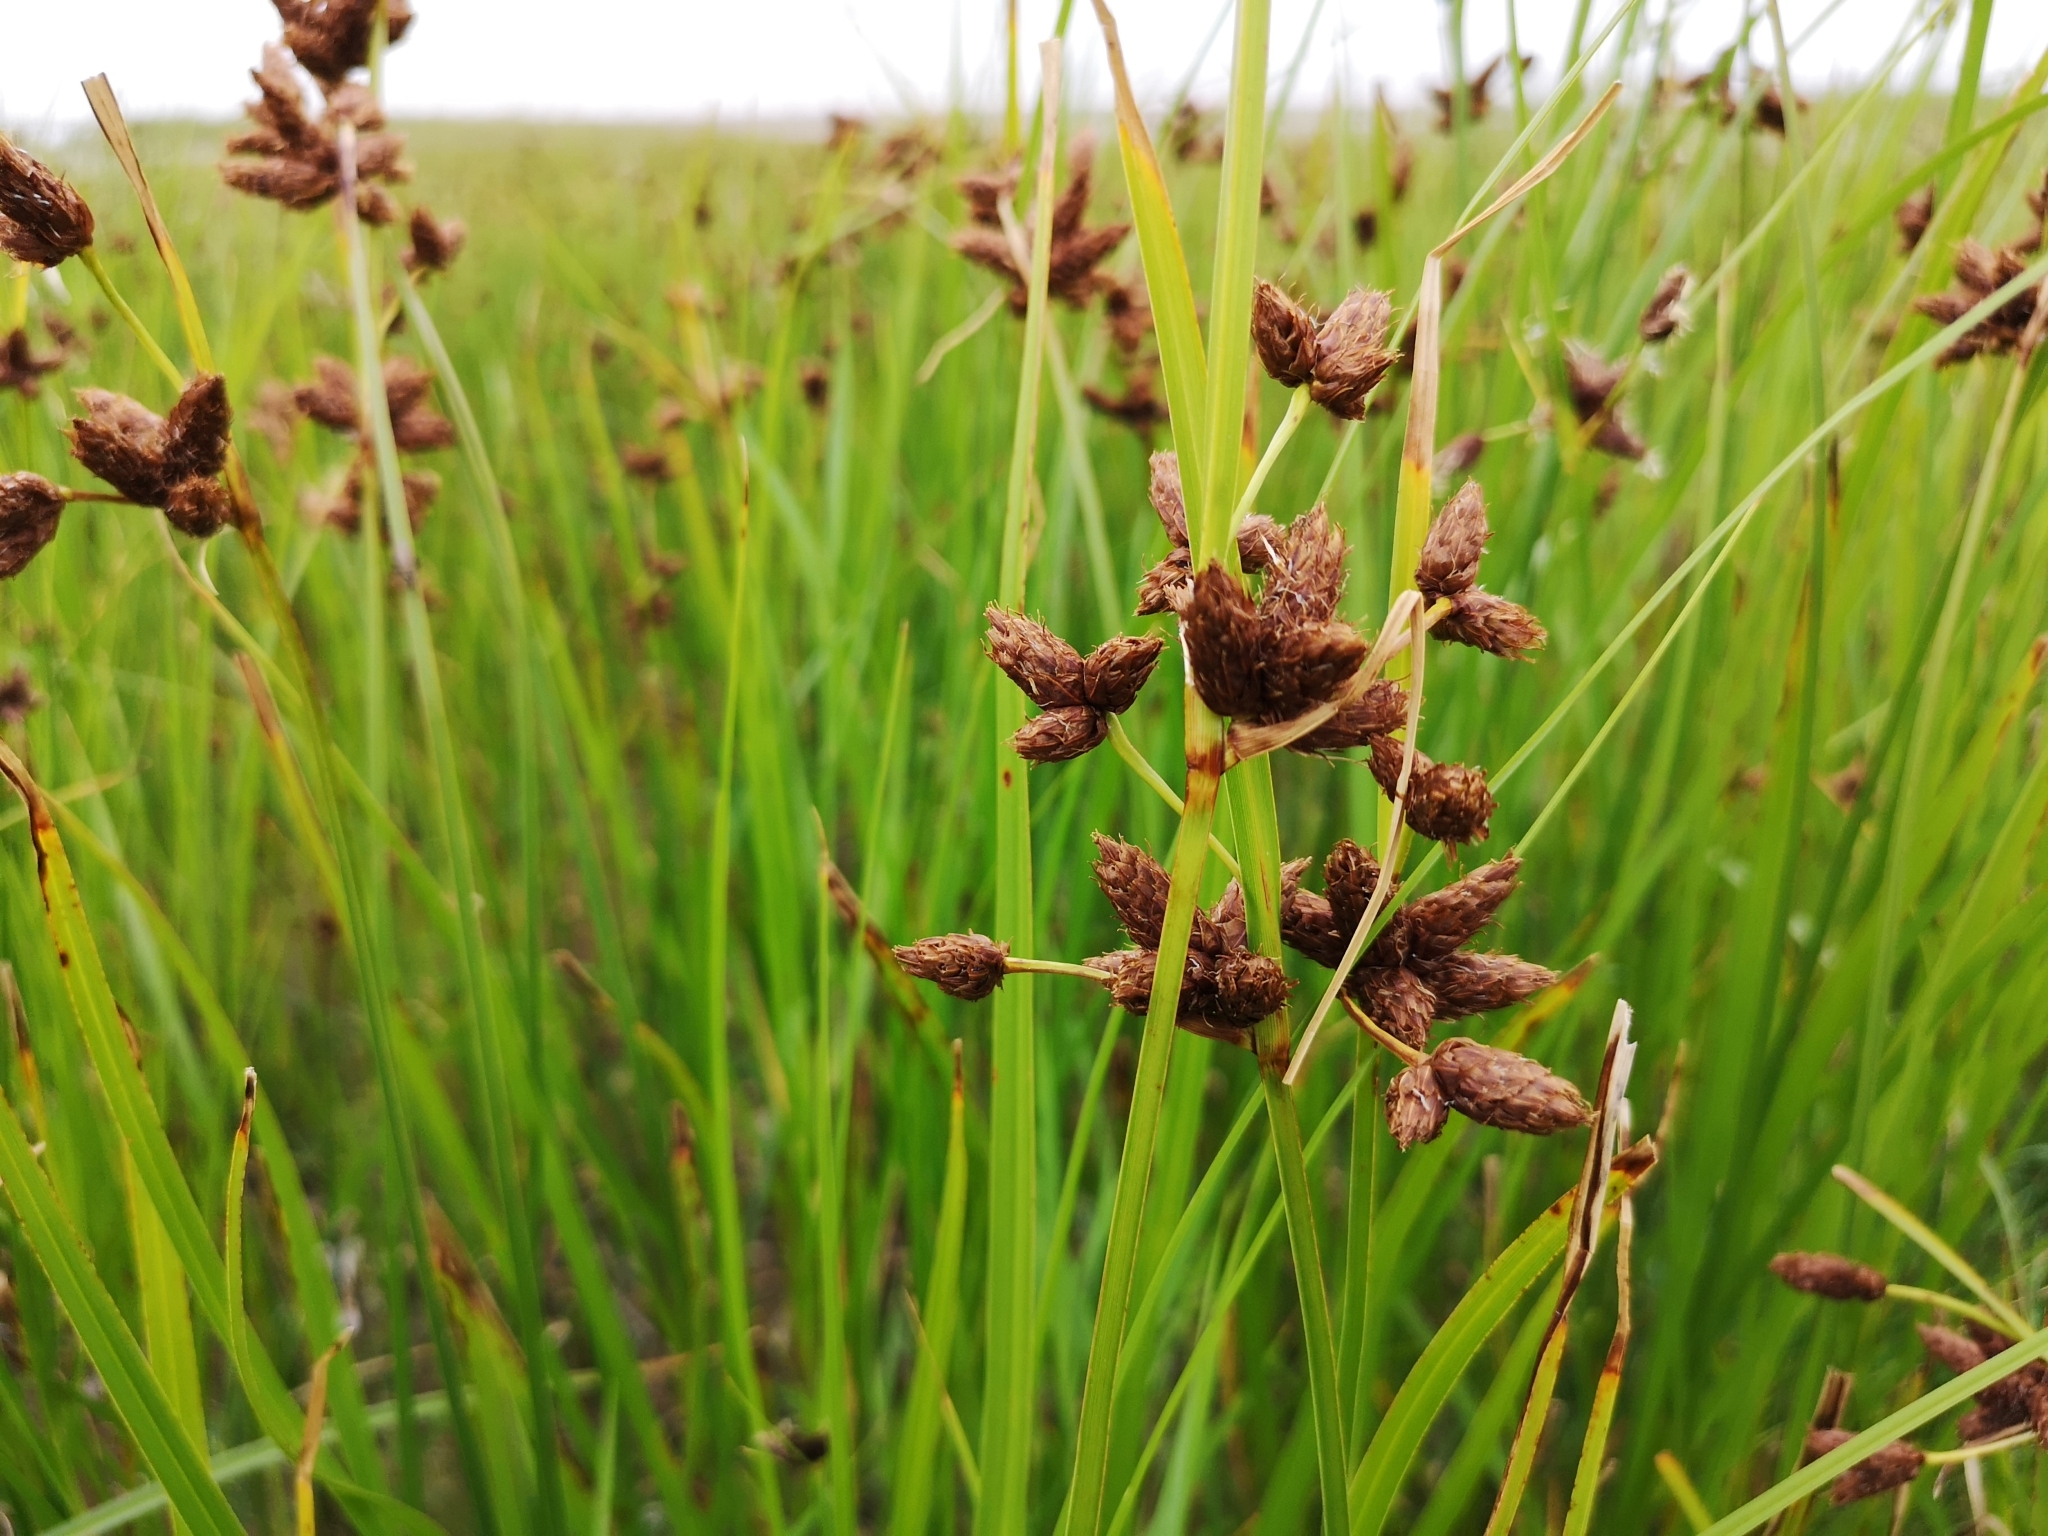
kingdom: Plantae
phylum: Tracheophyta
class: Liliopsida
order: Poales
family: Cyperaceae
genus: Bolboschoenus
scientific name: Bolboschoenus maritimus
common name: Sea club-rush
